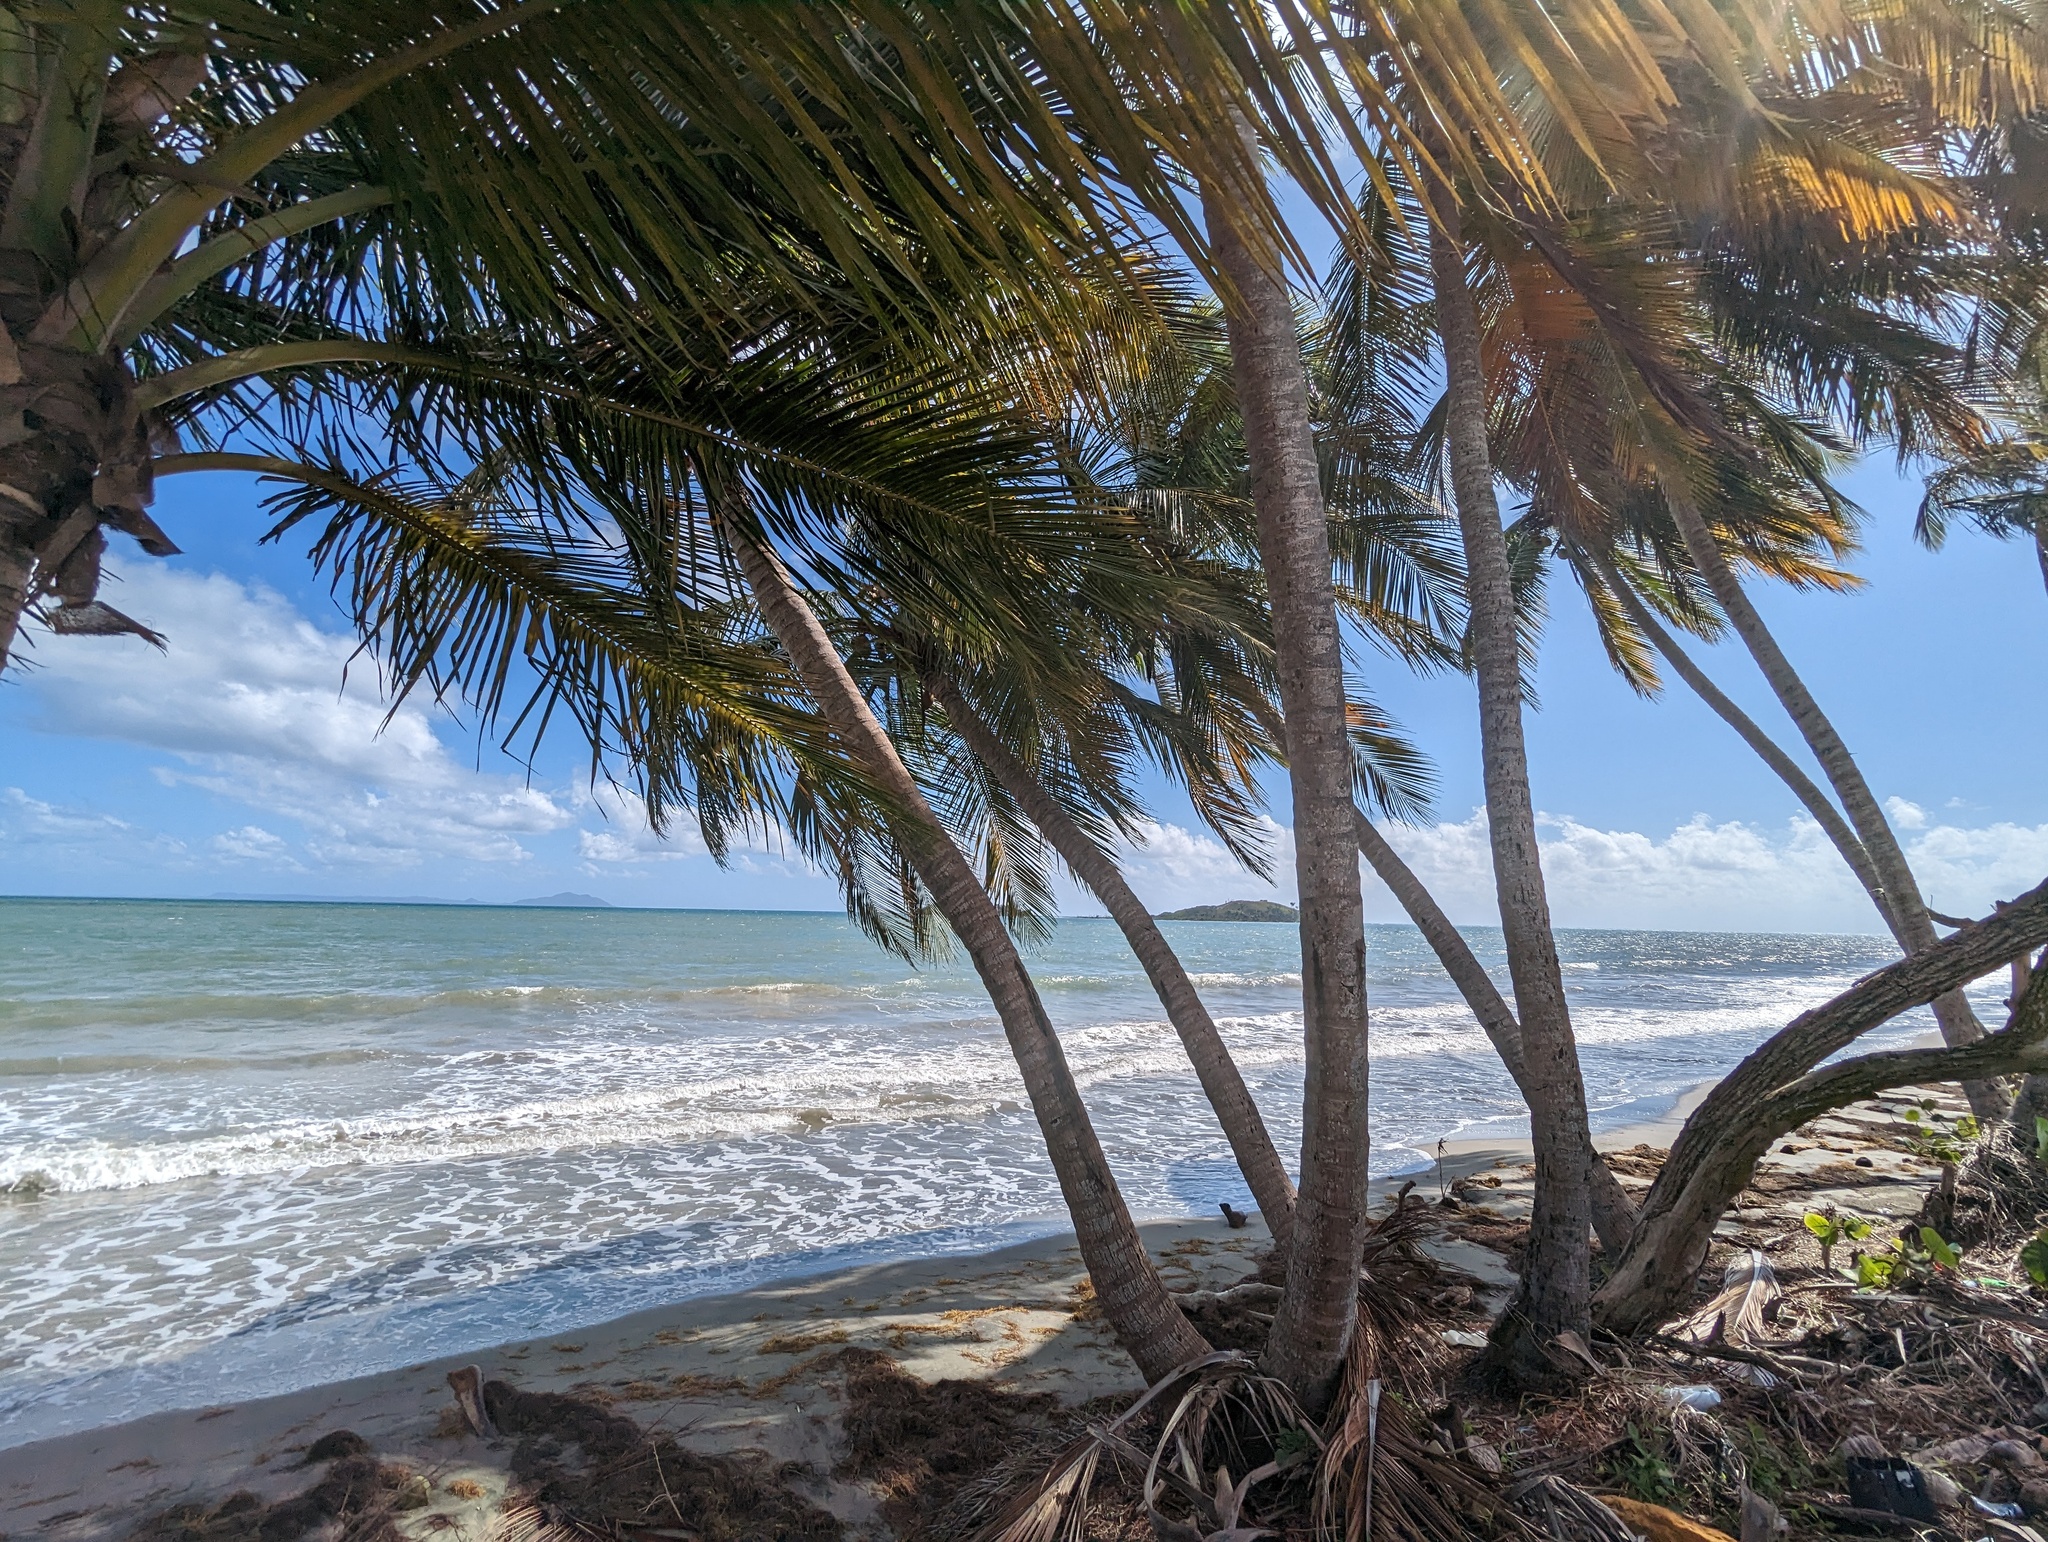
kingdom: Plantae
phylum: Tracheophyta
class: Liliopsida
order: Arecales
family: Arecaceae
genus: Cocos
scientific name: Cocos nucifera
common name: Coconut palm
